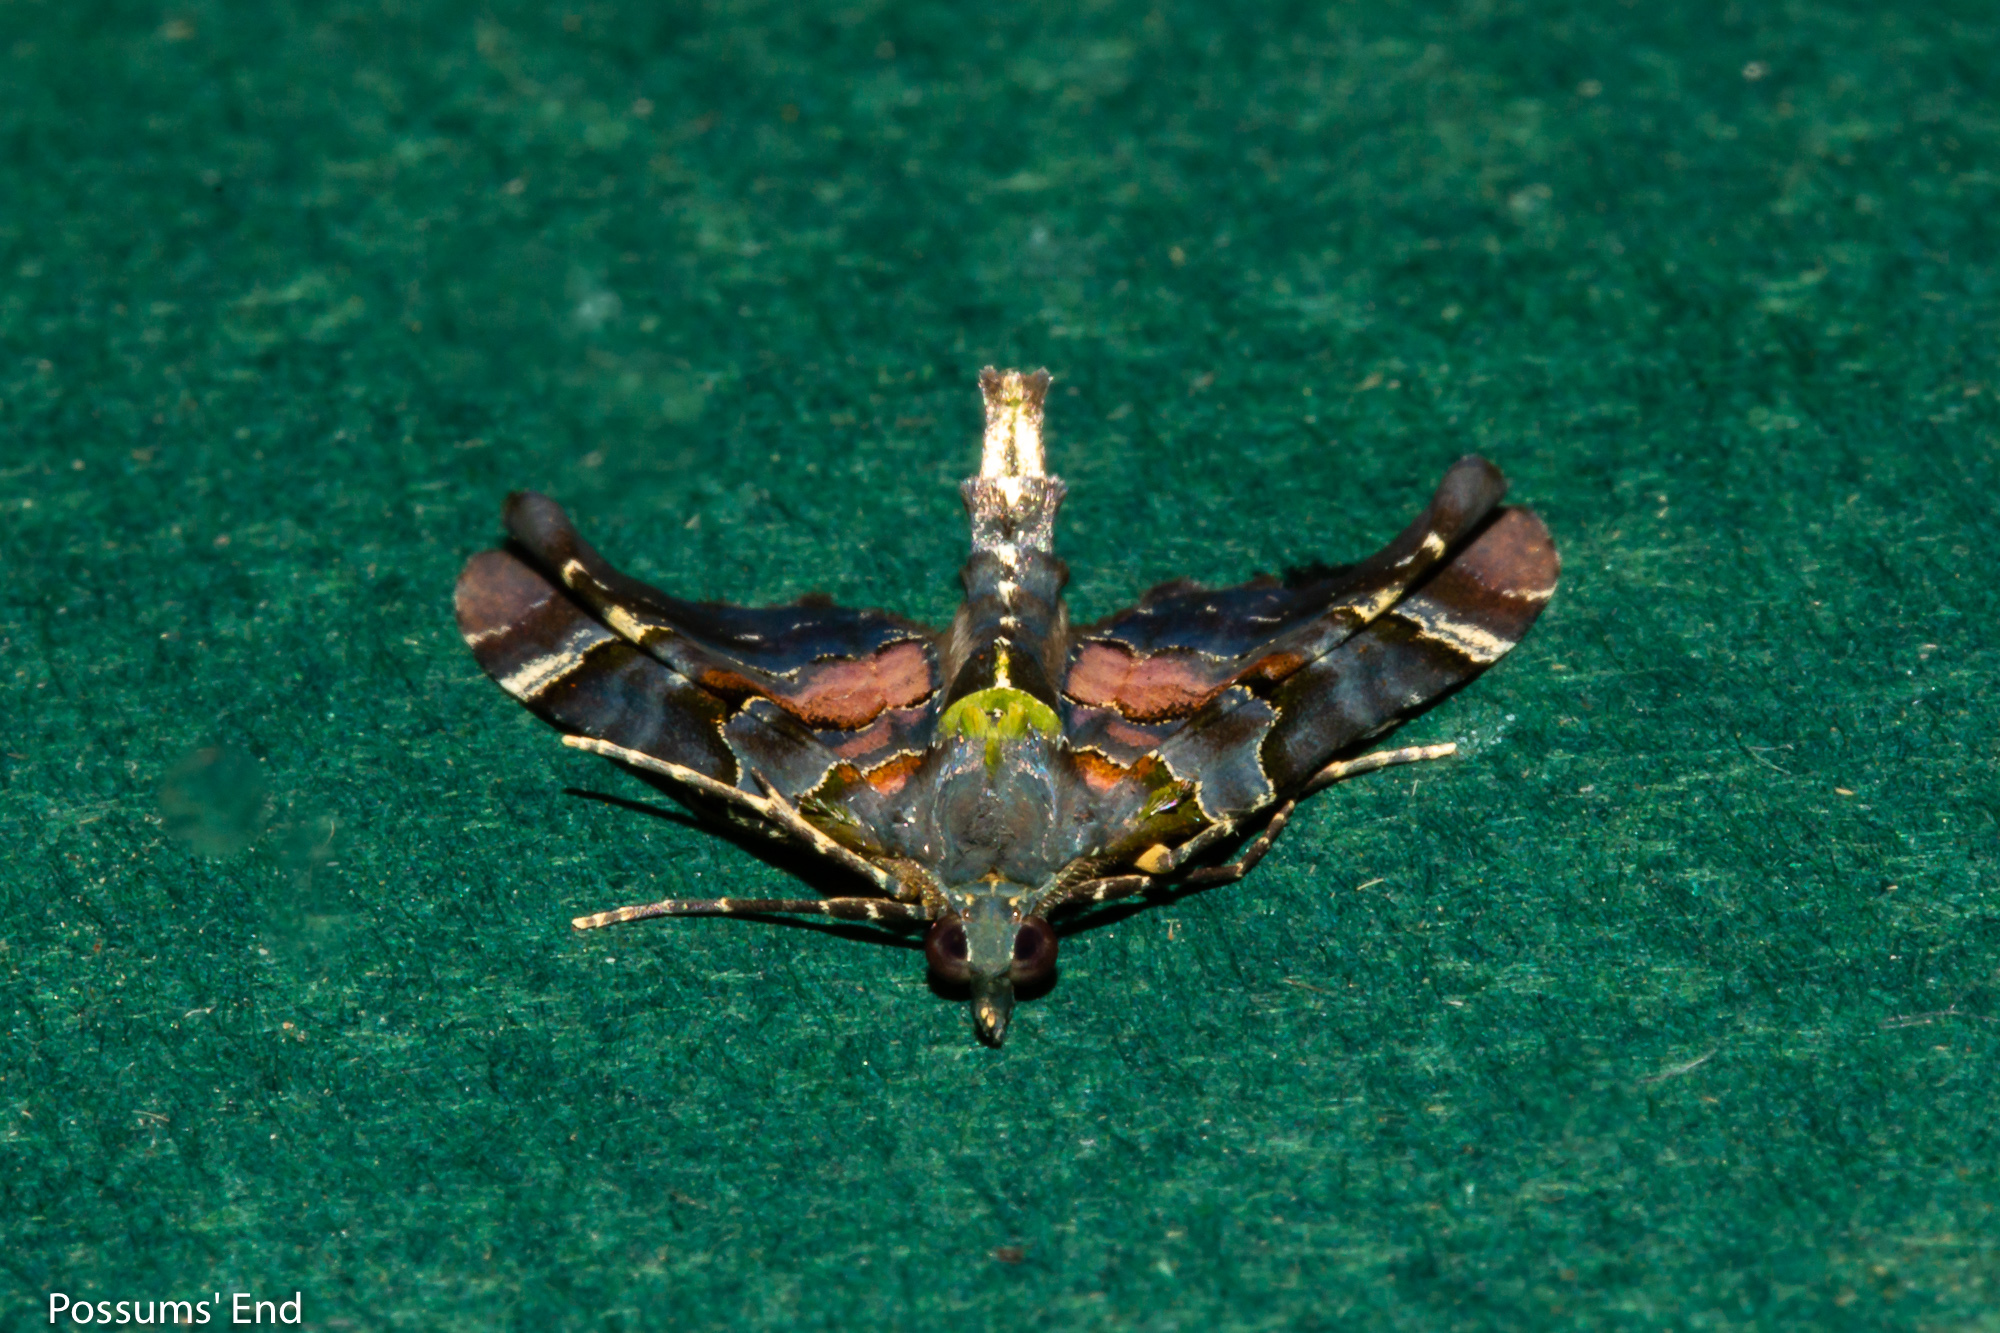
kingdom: Animalia
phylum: Arthropoda
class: Insecta
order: Lepidoptera
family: Geometridae
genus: Elvia
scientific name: Elvia glaucata
